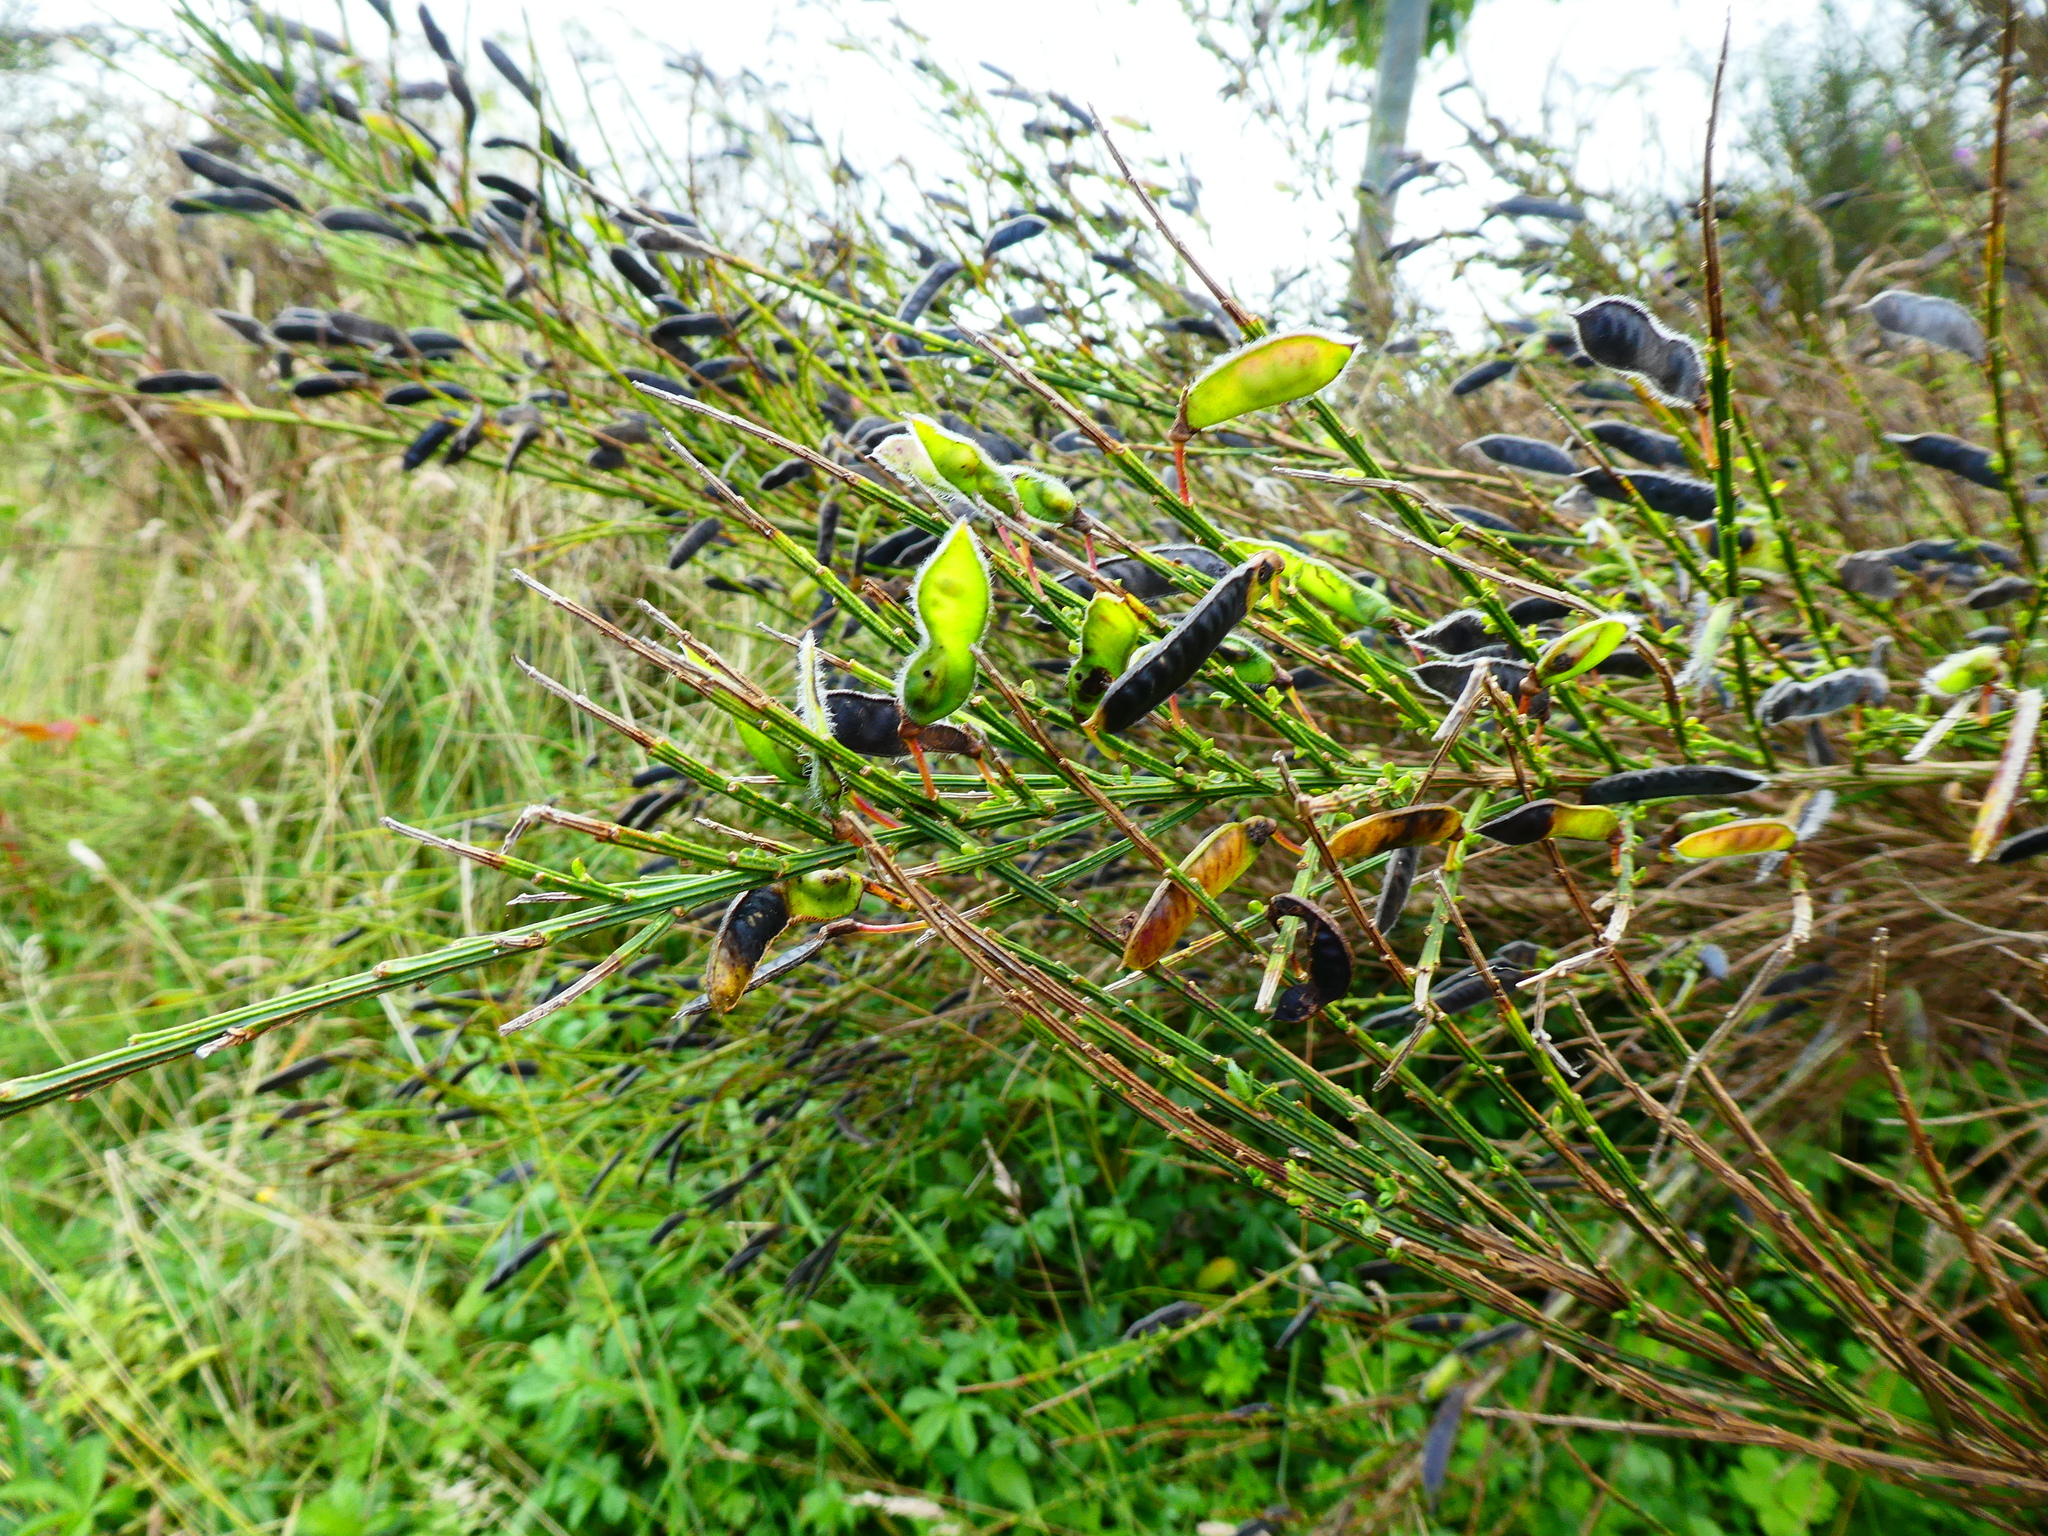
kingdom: Plantae
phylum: Tracheophyta
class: Magnoliopsida
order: Fabales
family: Fabaceae
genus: Cytisus
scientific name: Cytisus scoparius
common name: Scotch broom
